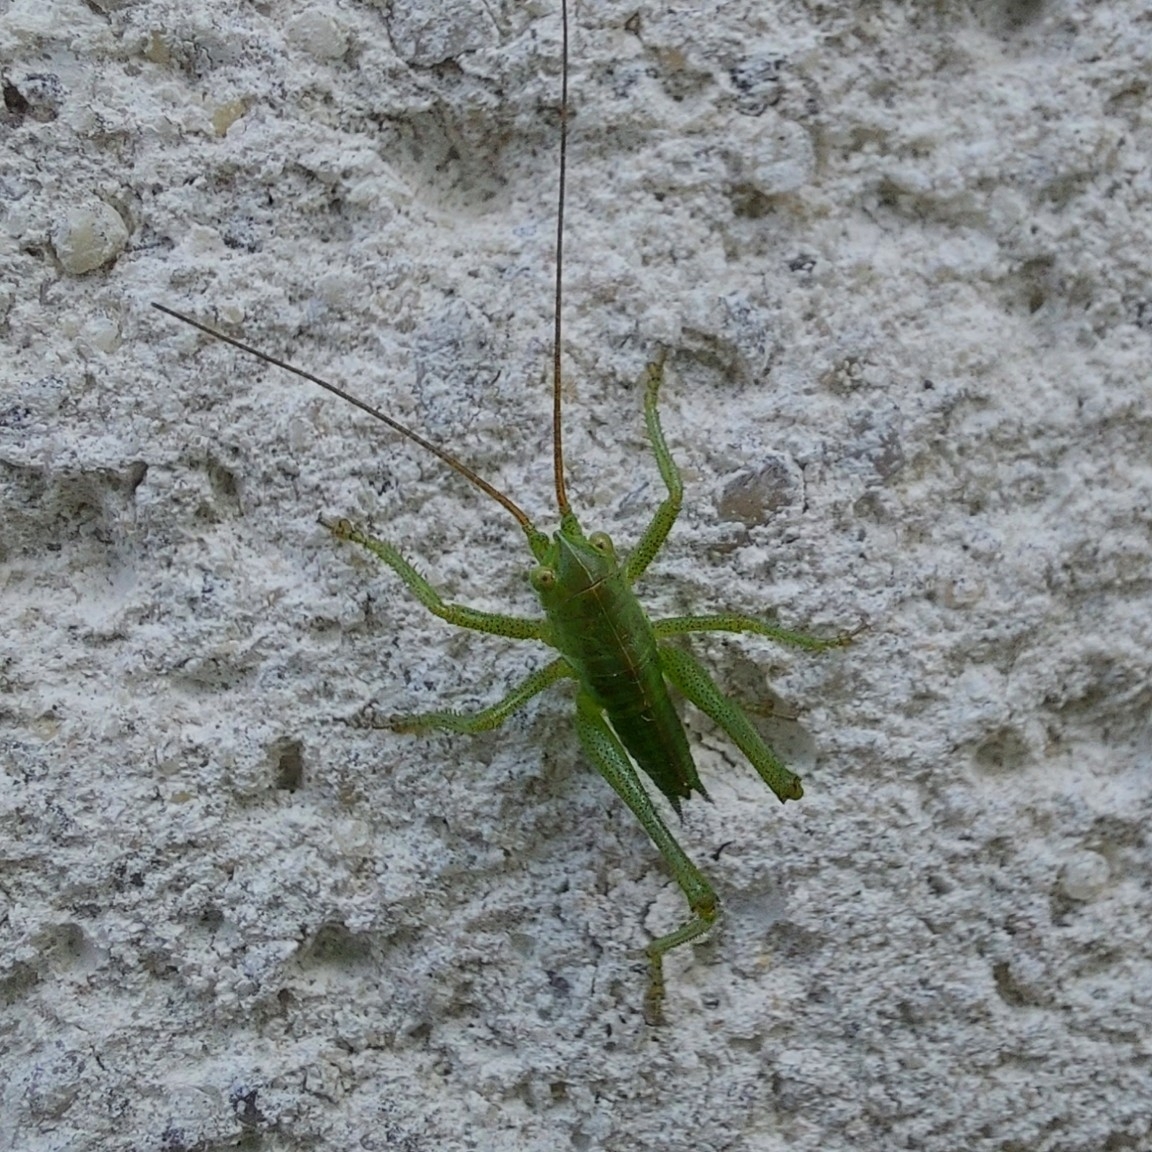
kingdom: Animalia
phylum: Arthropoda
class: Insecta
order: Orthoptera
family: Tettigoniidae
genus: Tettigonia
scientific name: Tettigonia viridissima
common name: Great green bush-cricket
